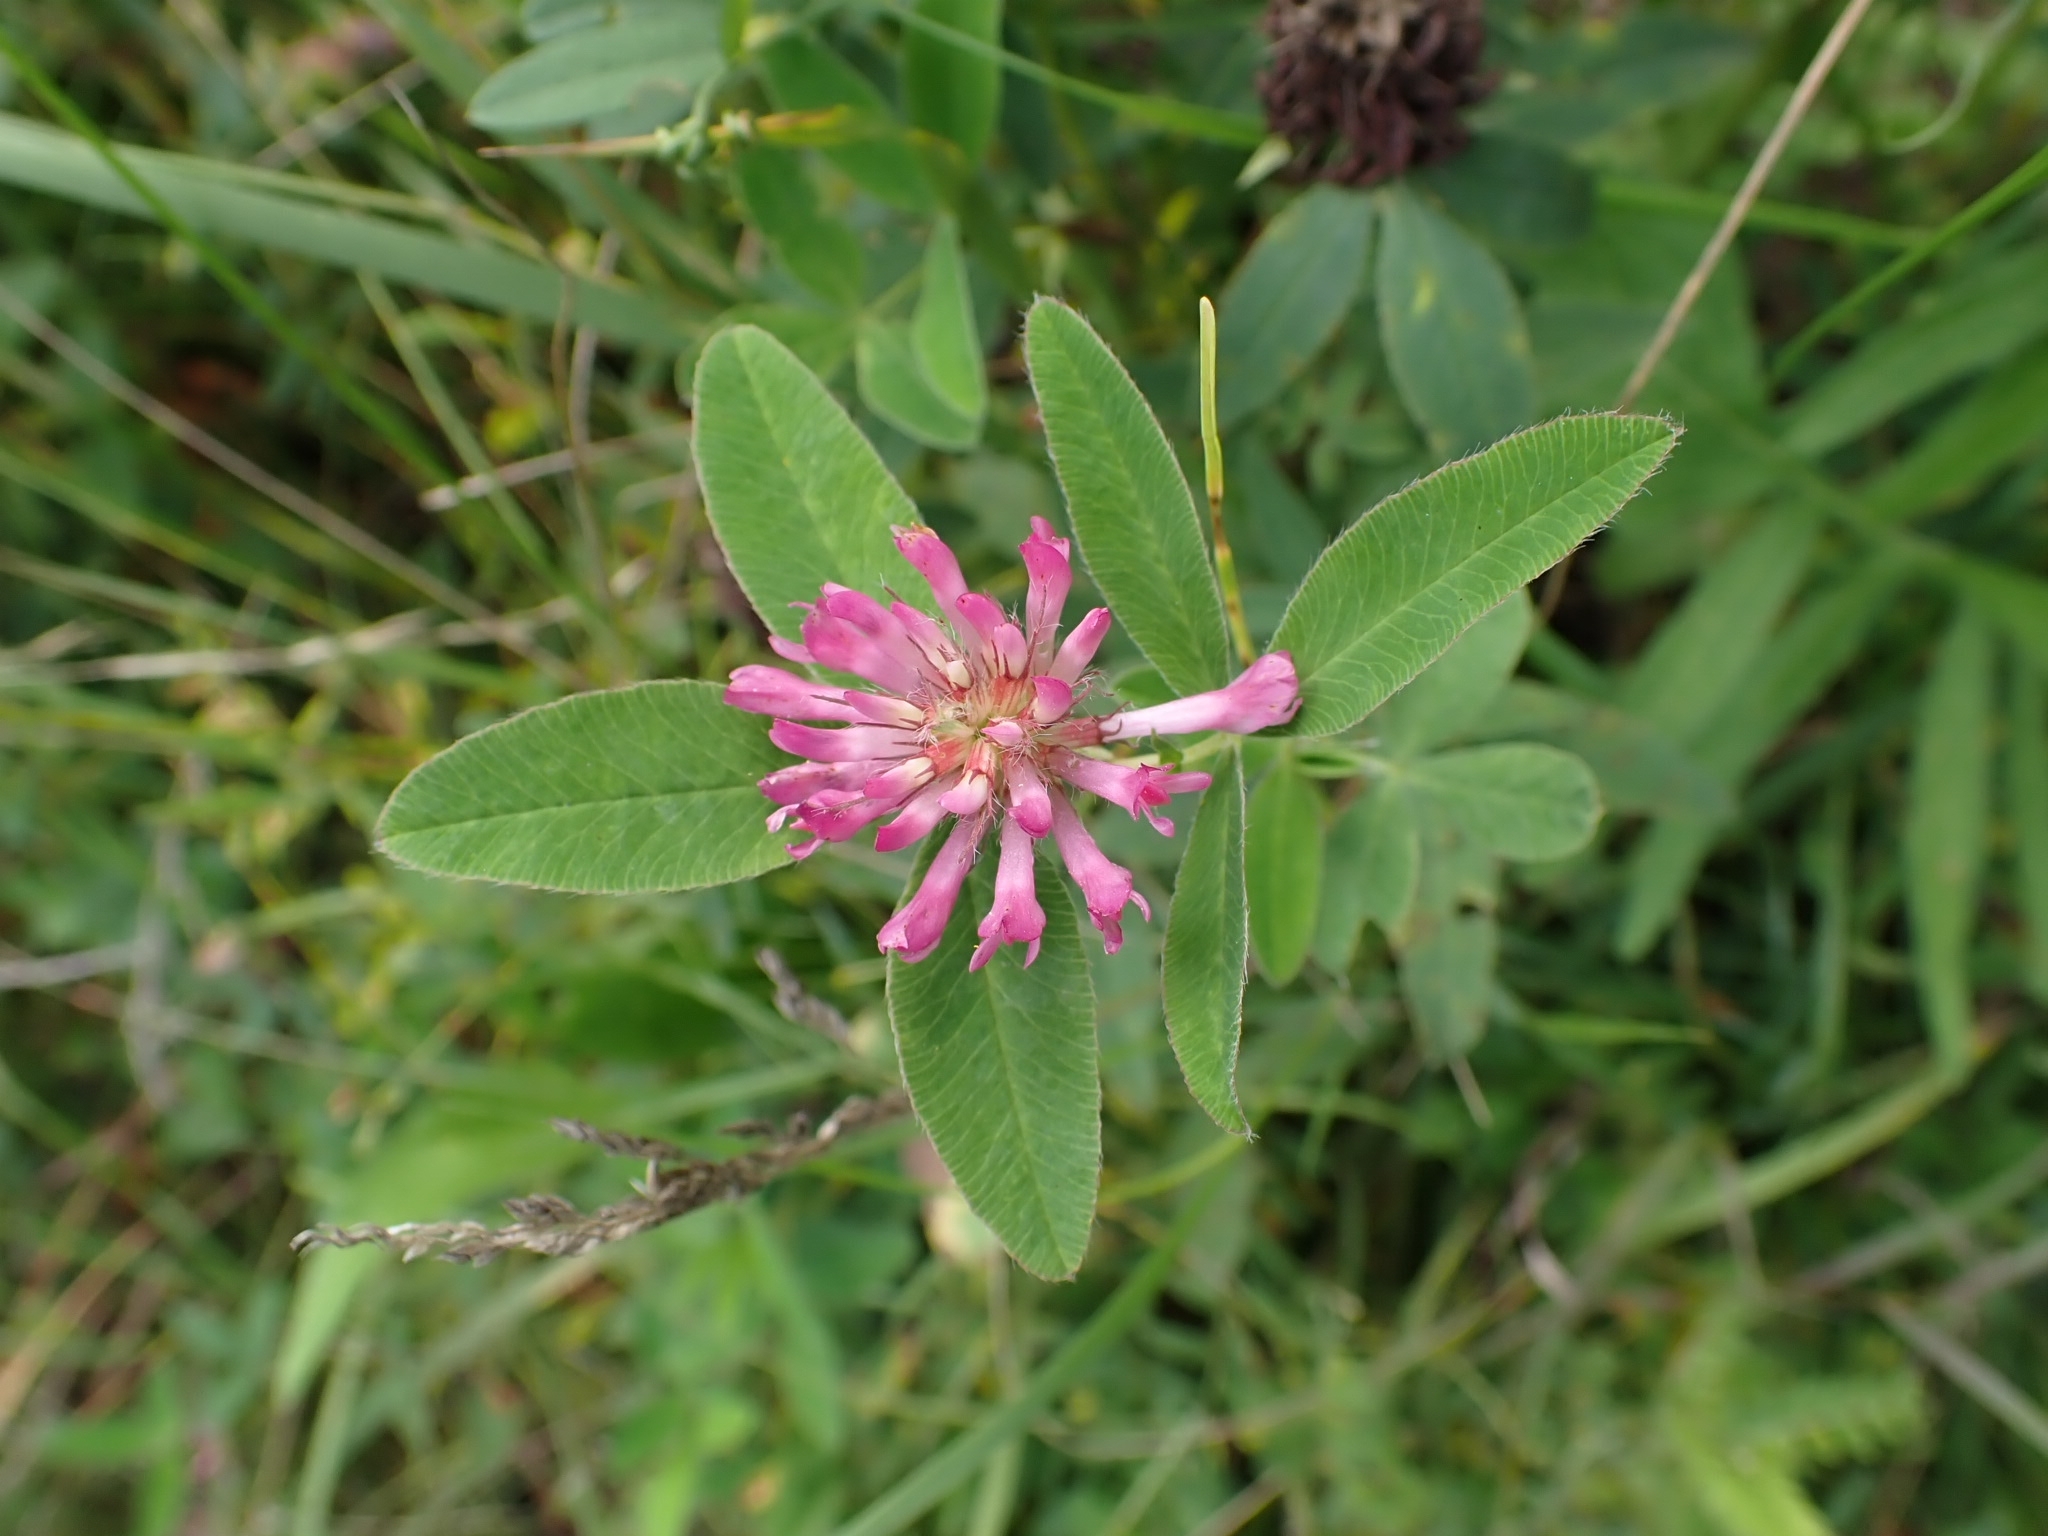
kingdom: Plantae
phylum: Tracheophyta
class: Magnoliopsida
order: Fabales
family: Fabaceae
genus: Trifolium
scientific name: Trifolium medium
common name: Zigzag clover
